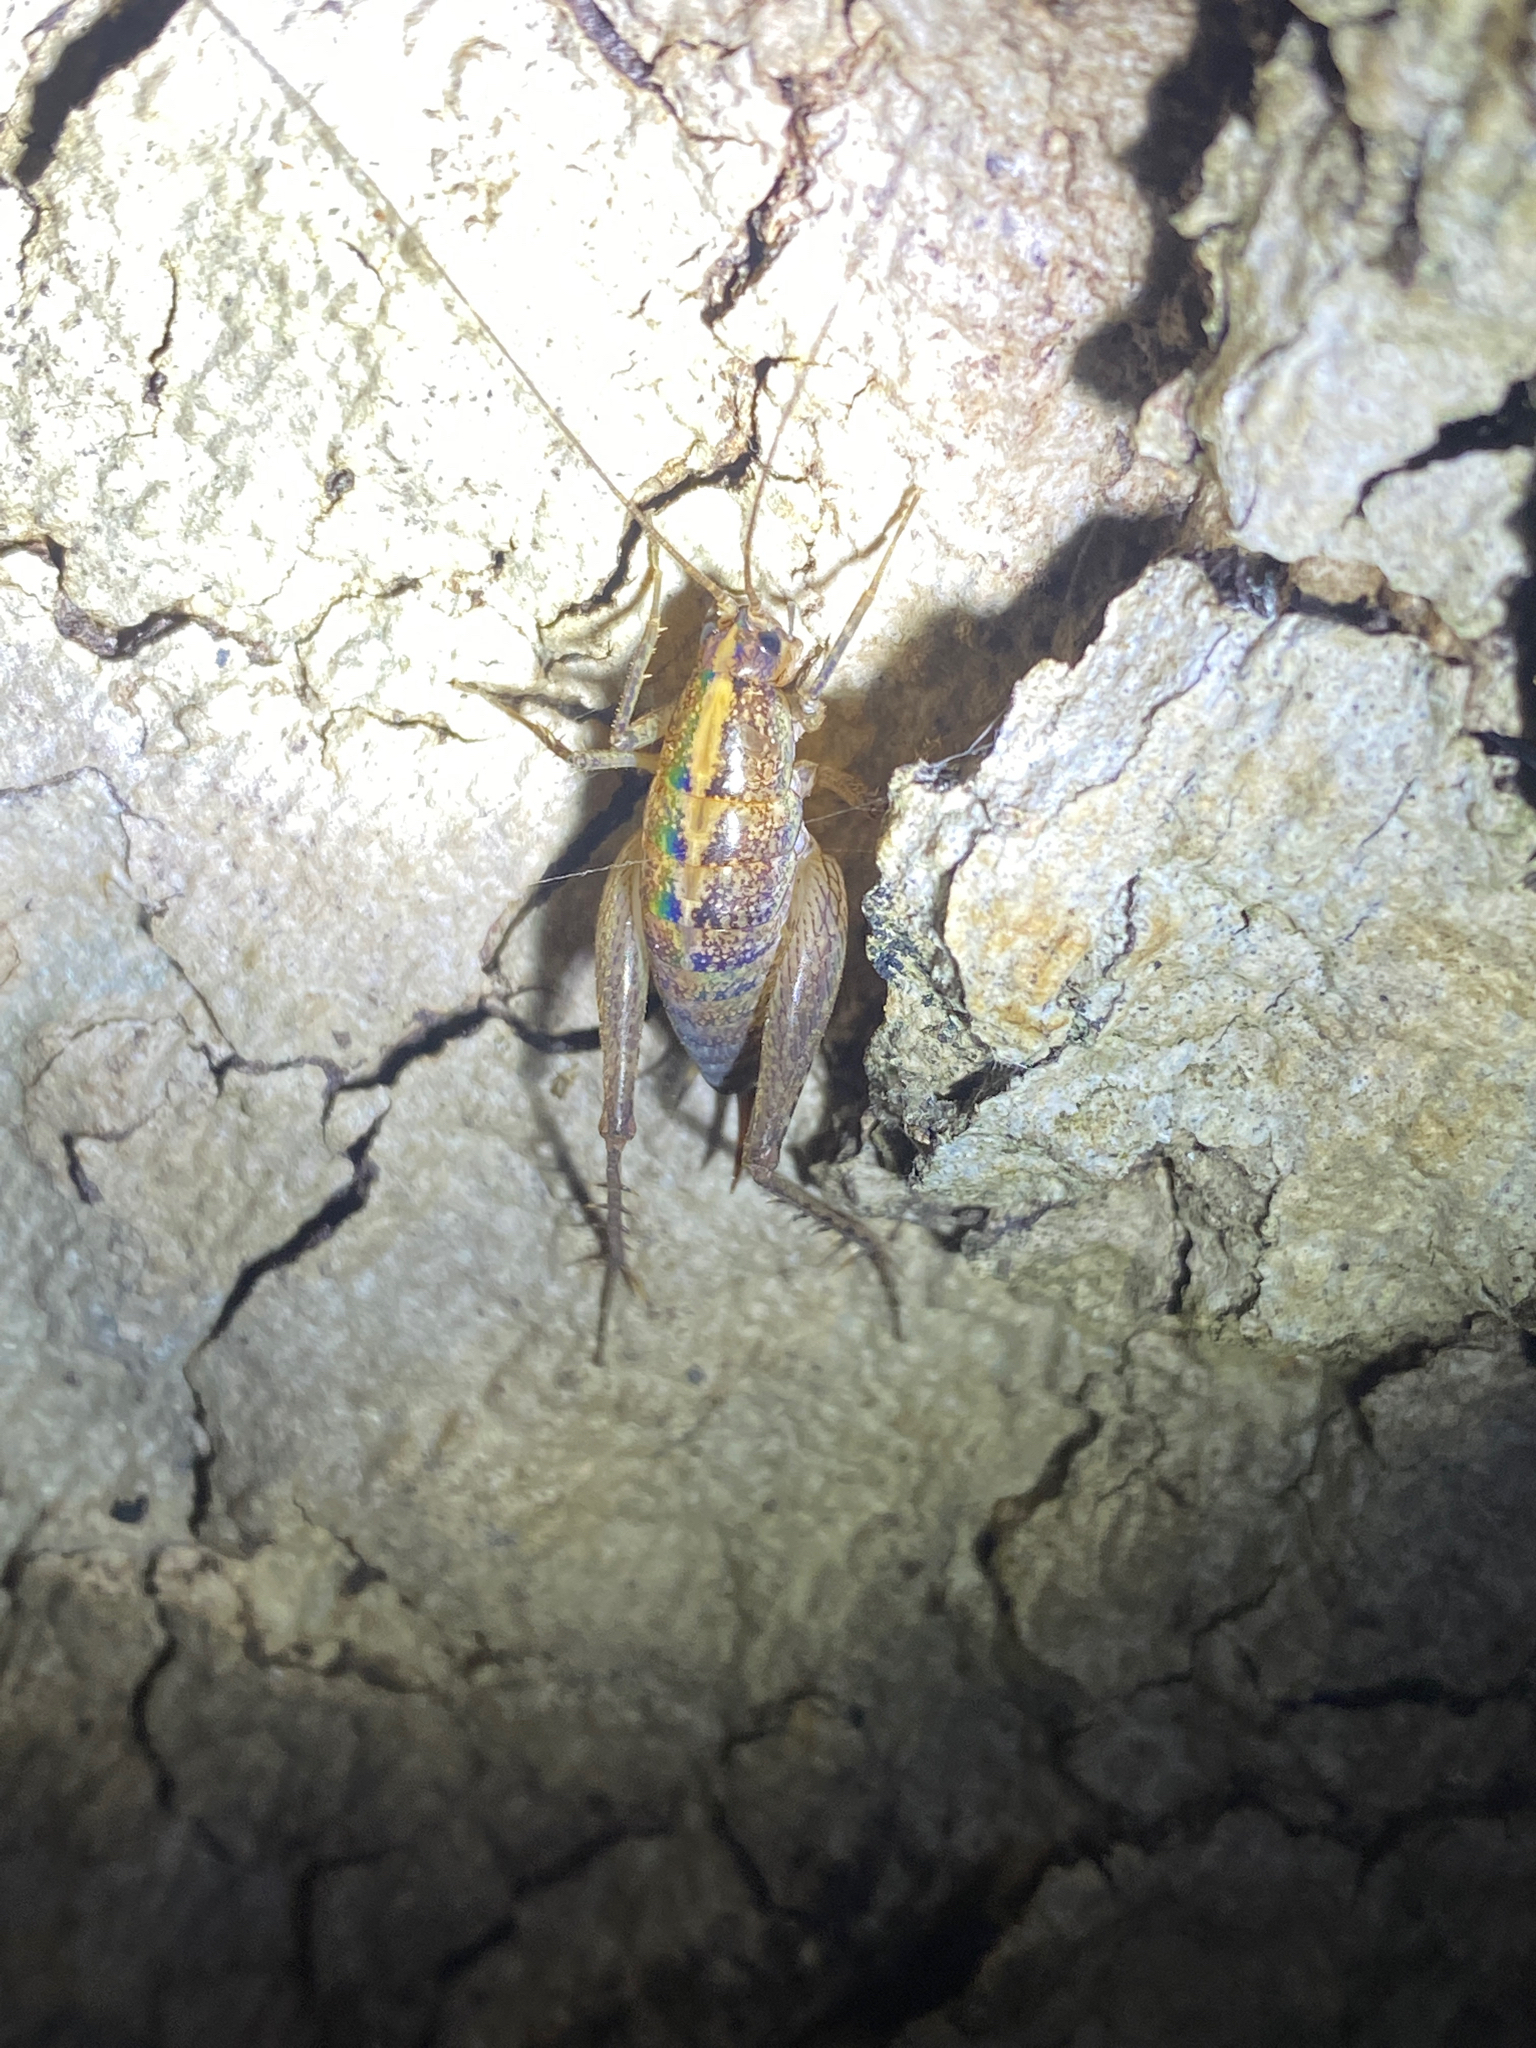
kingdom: Animalia
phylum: Arthropoda
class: Insecta
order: Orthoptera
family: Rhaphidophoridae
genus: Pristoceuthophilus
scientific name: Pristoceuthophilus
